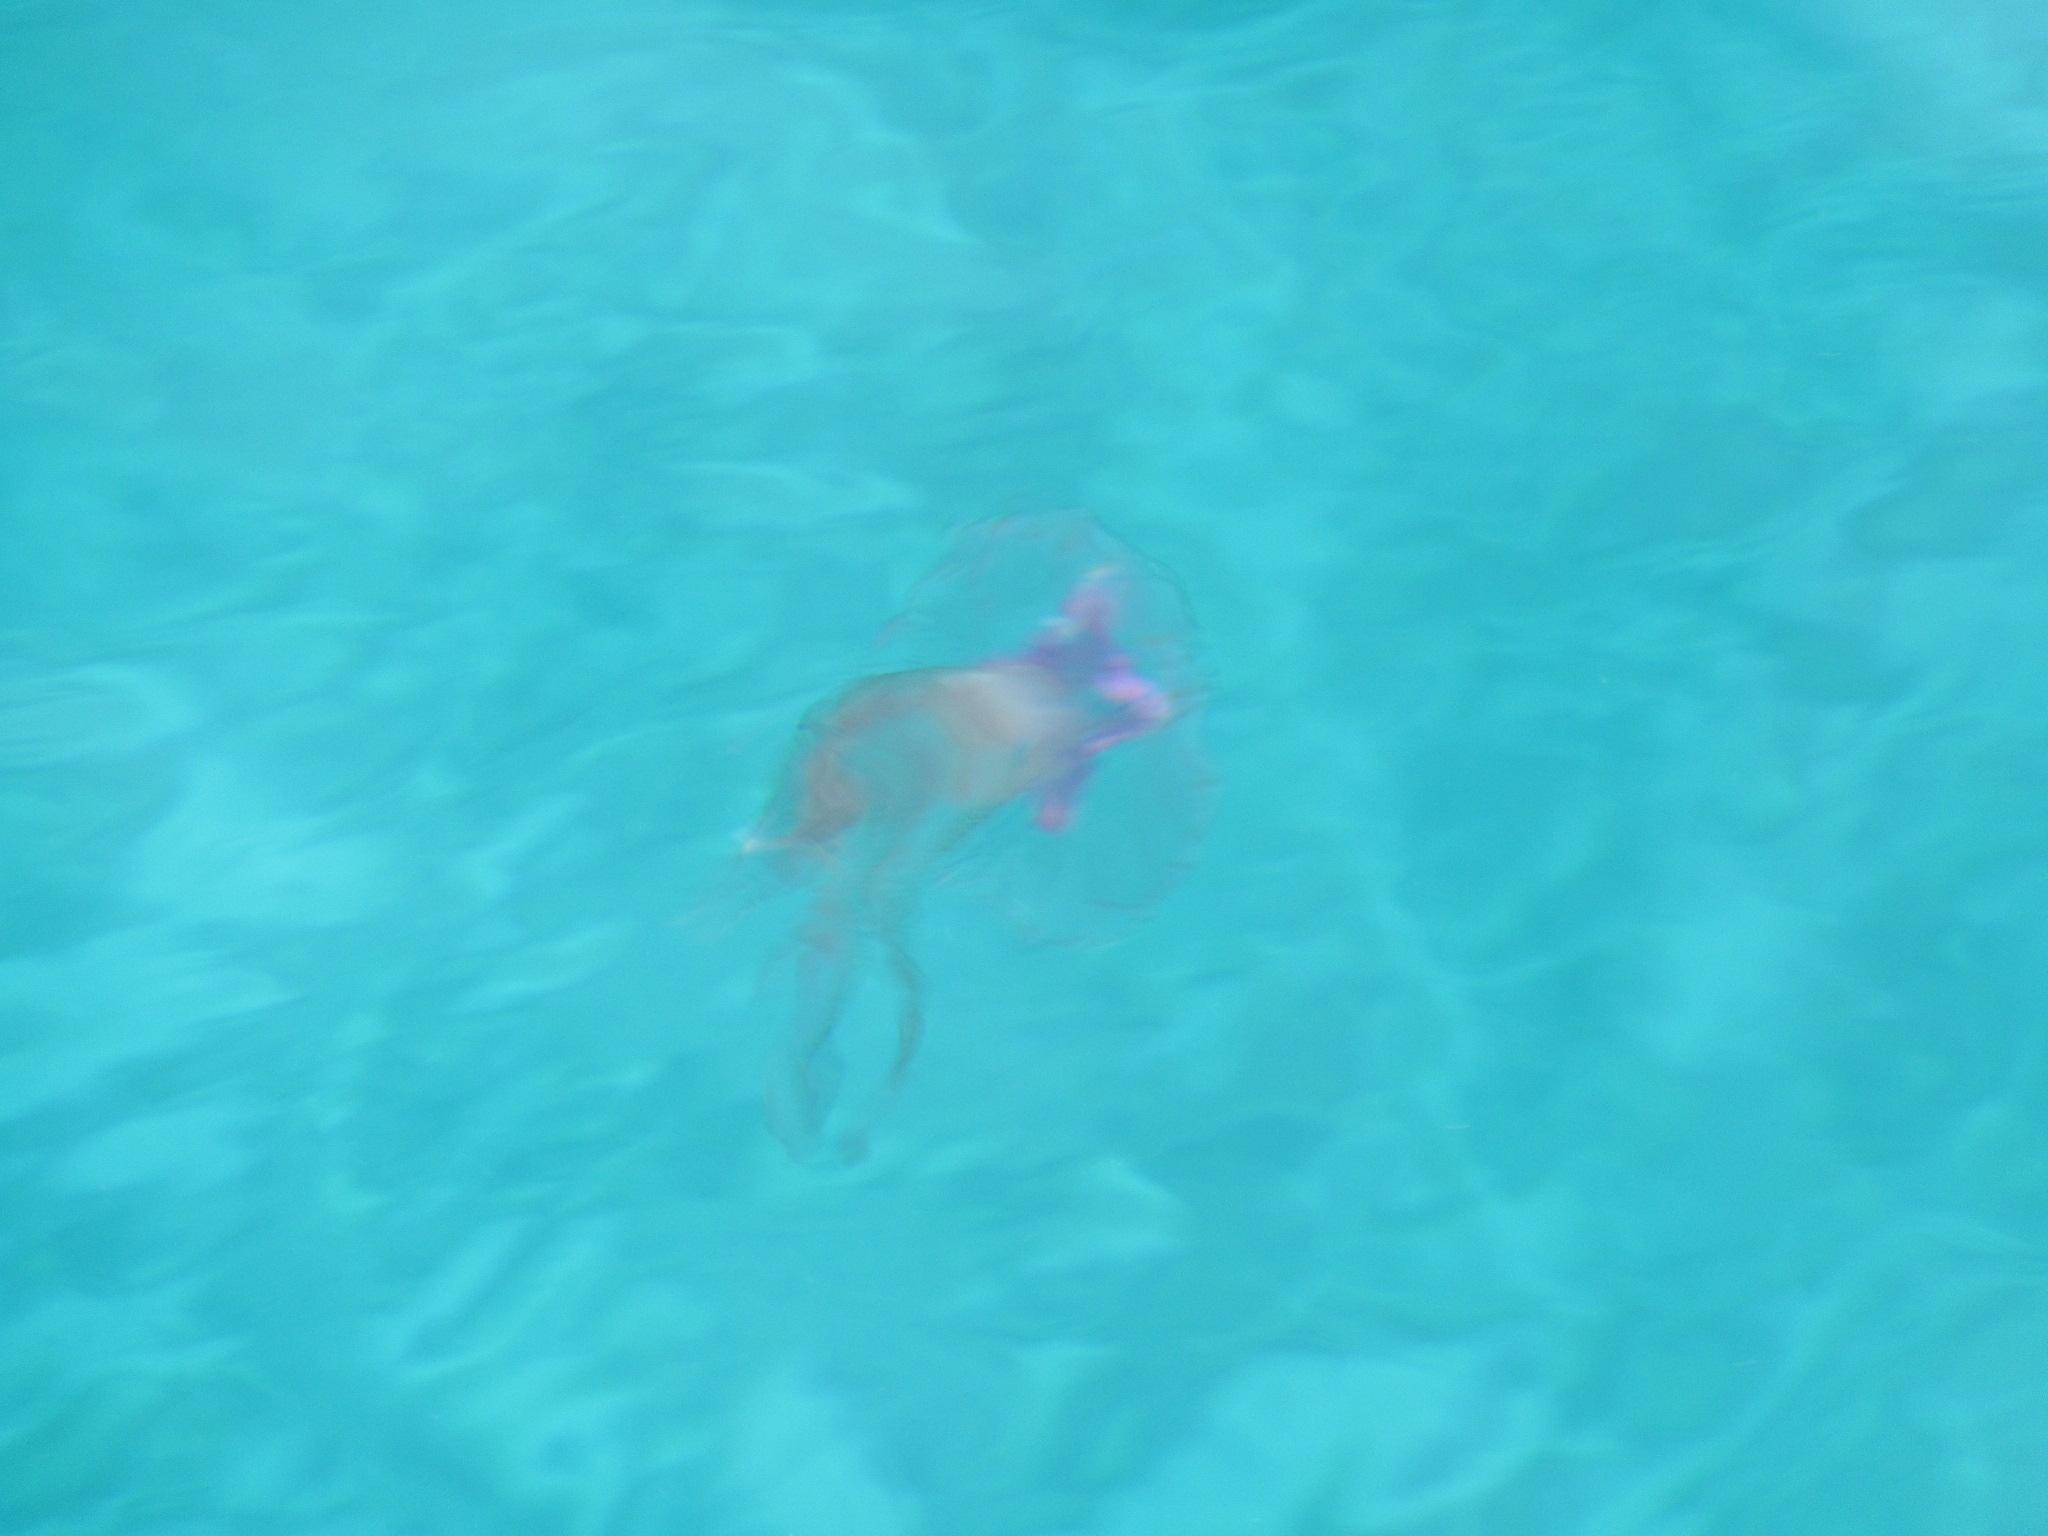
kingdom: Animalia
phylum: Cnidaria
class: Scyphozoa
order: Semaeostomeae
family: Pelagiidae
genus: Pelagia
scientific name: Pelagia noctiluca
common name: Mauve stinger
